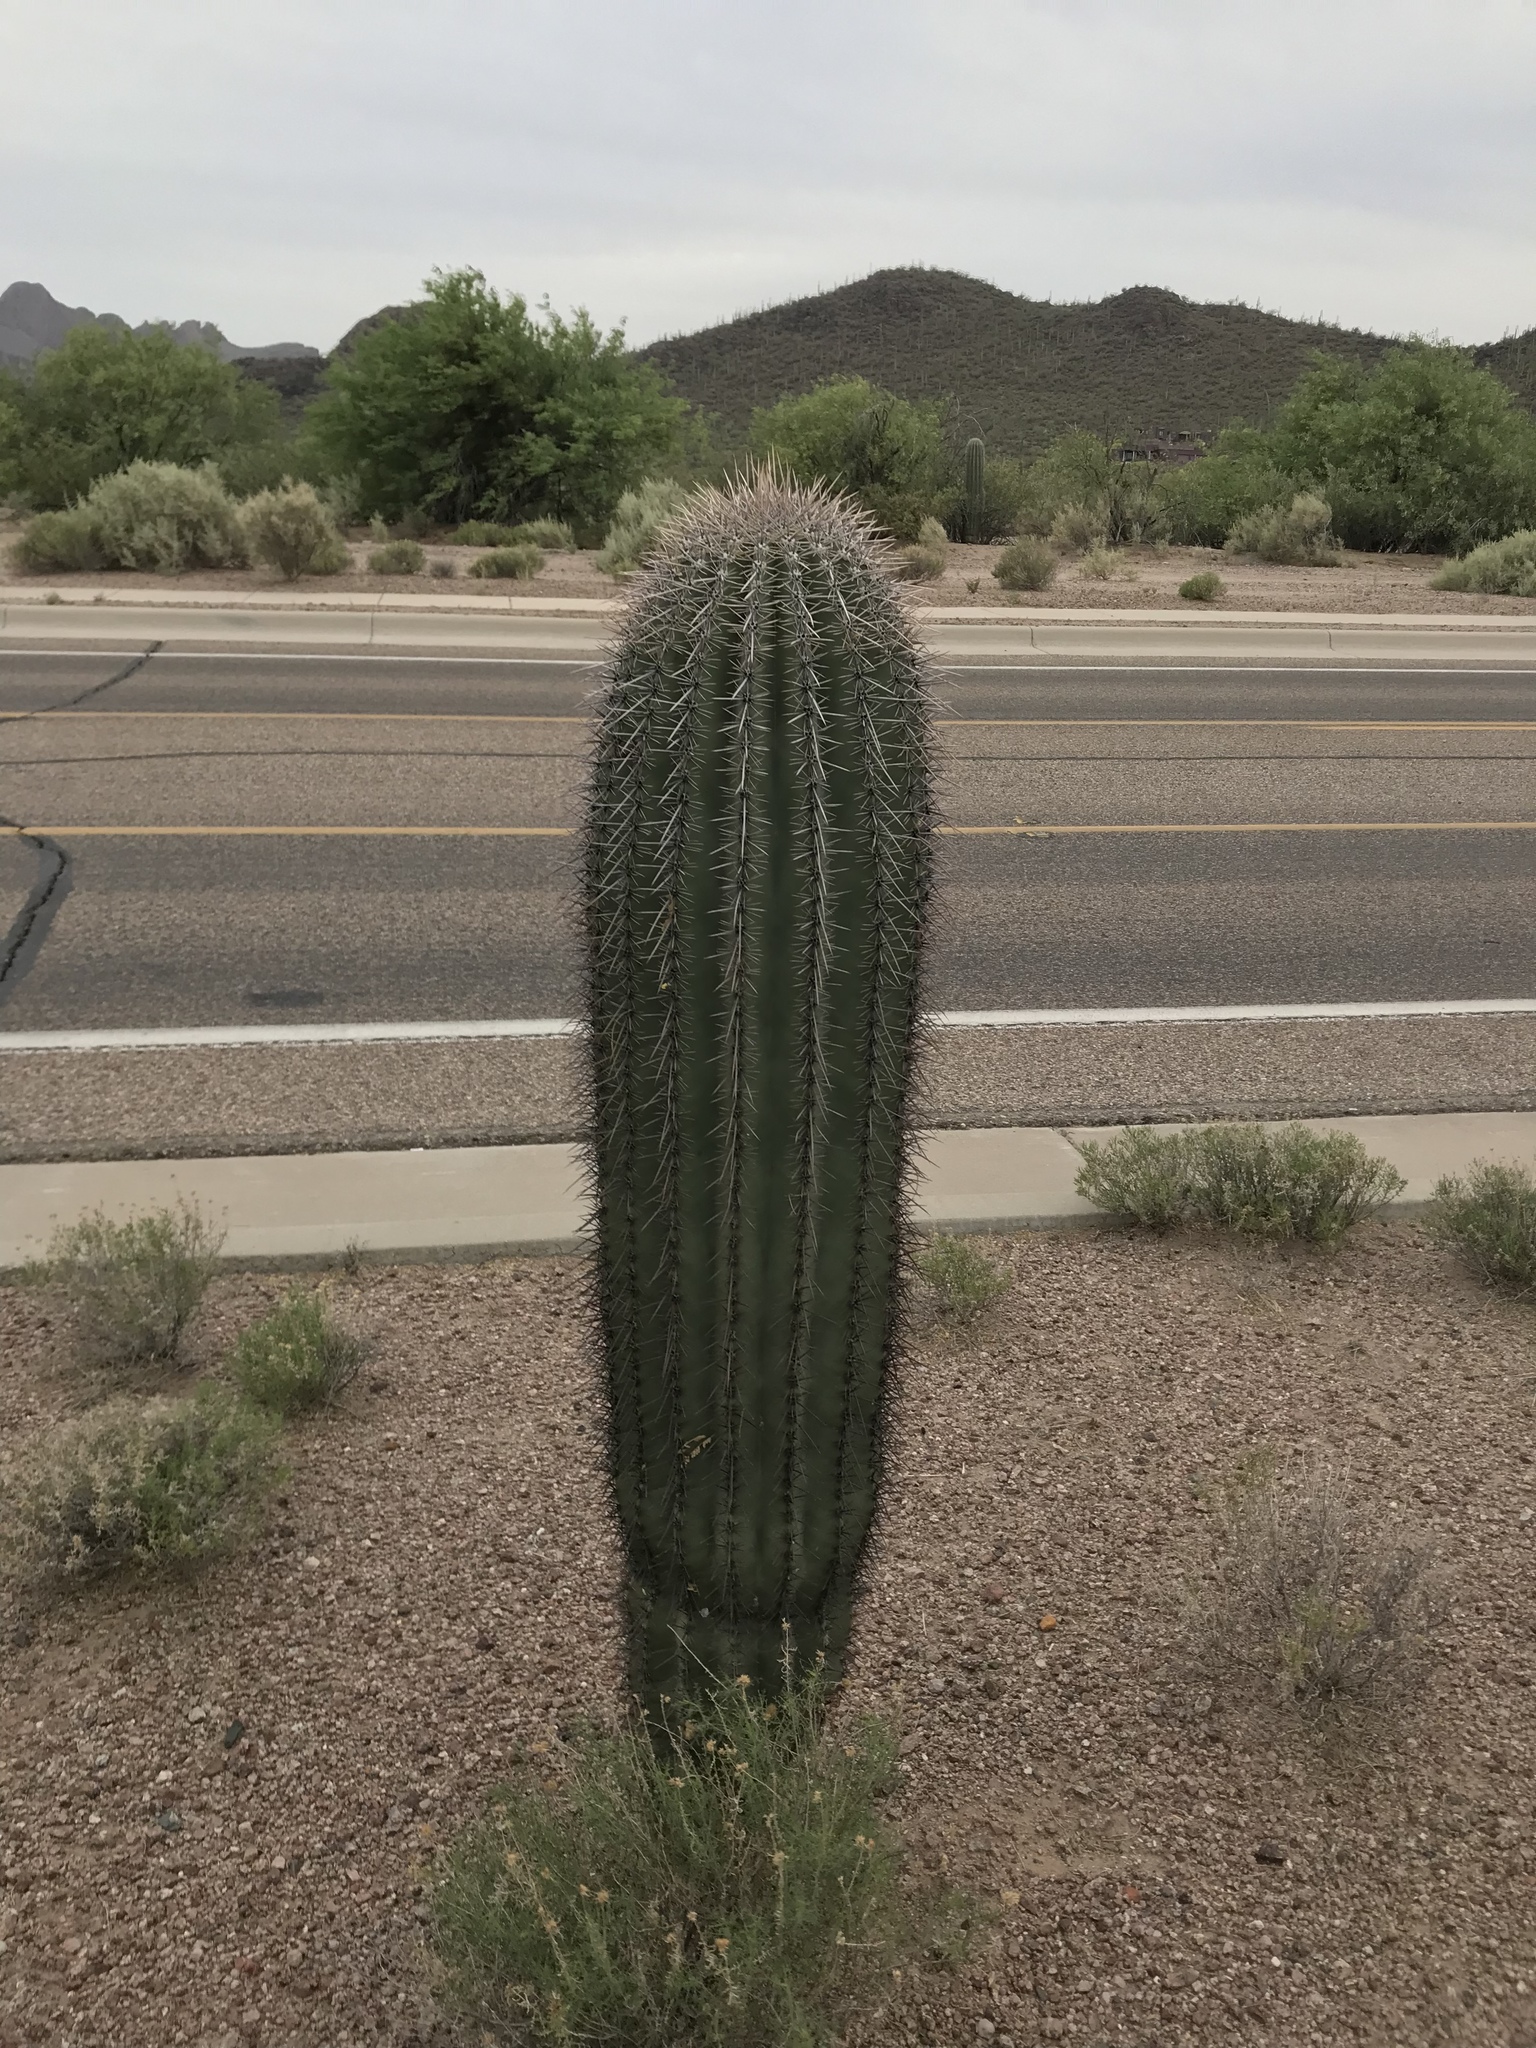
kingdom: Plantae
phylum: Tracheophyta
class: Magnoliopsida
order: Caryophyllales
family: Cactaceae
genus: Carnegiea
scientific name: Carnegiea gigantea
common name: Saguaro
